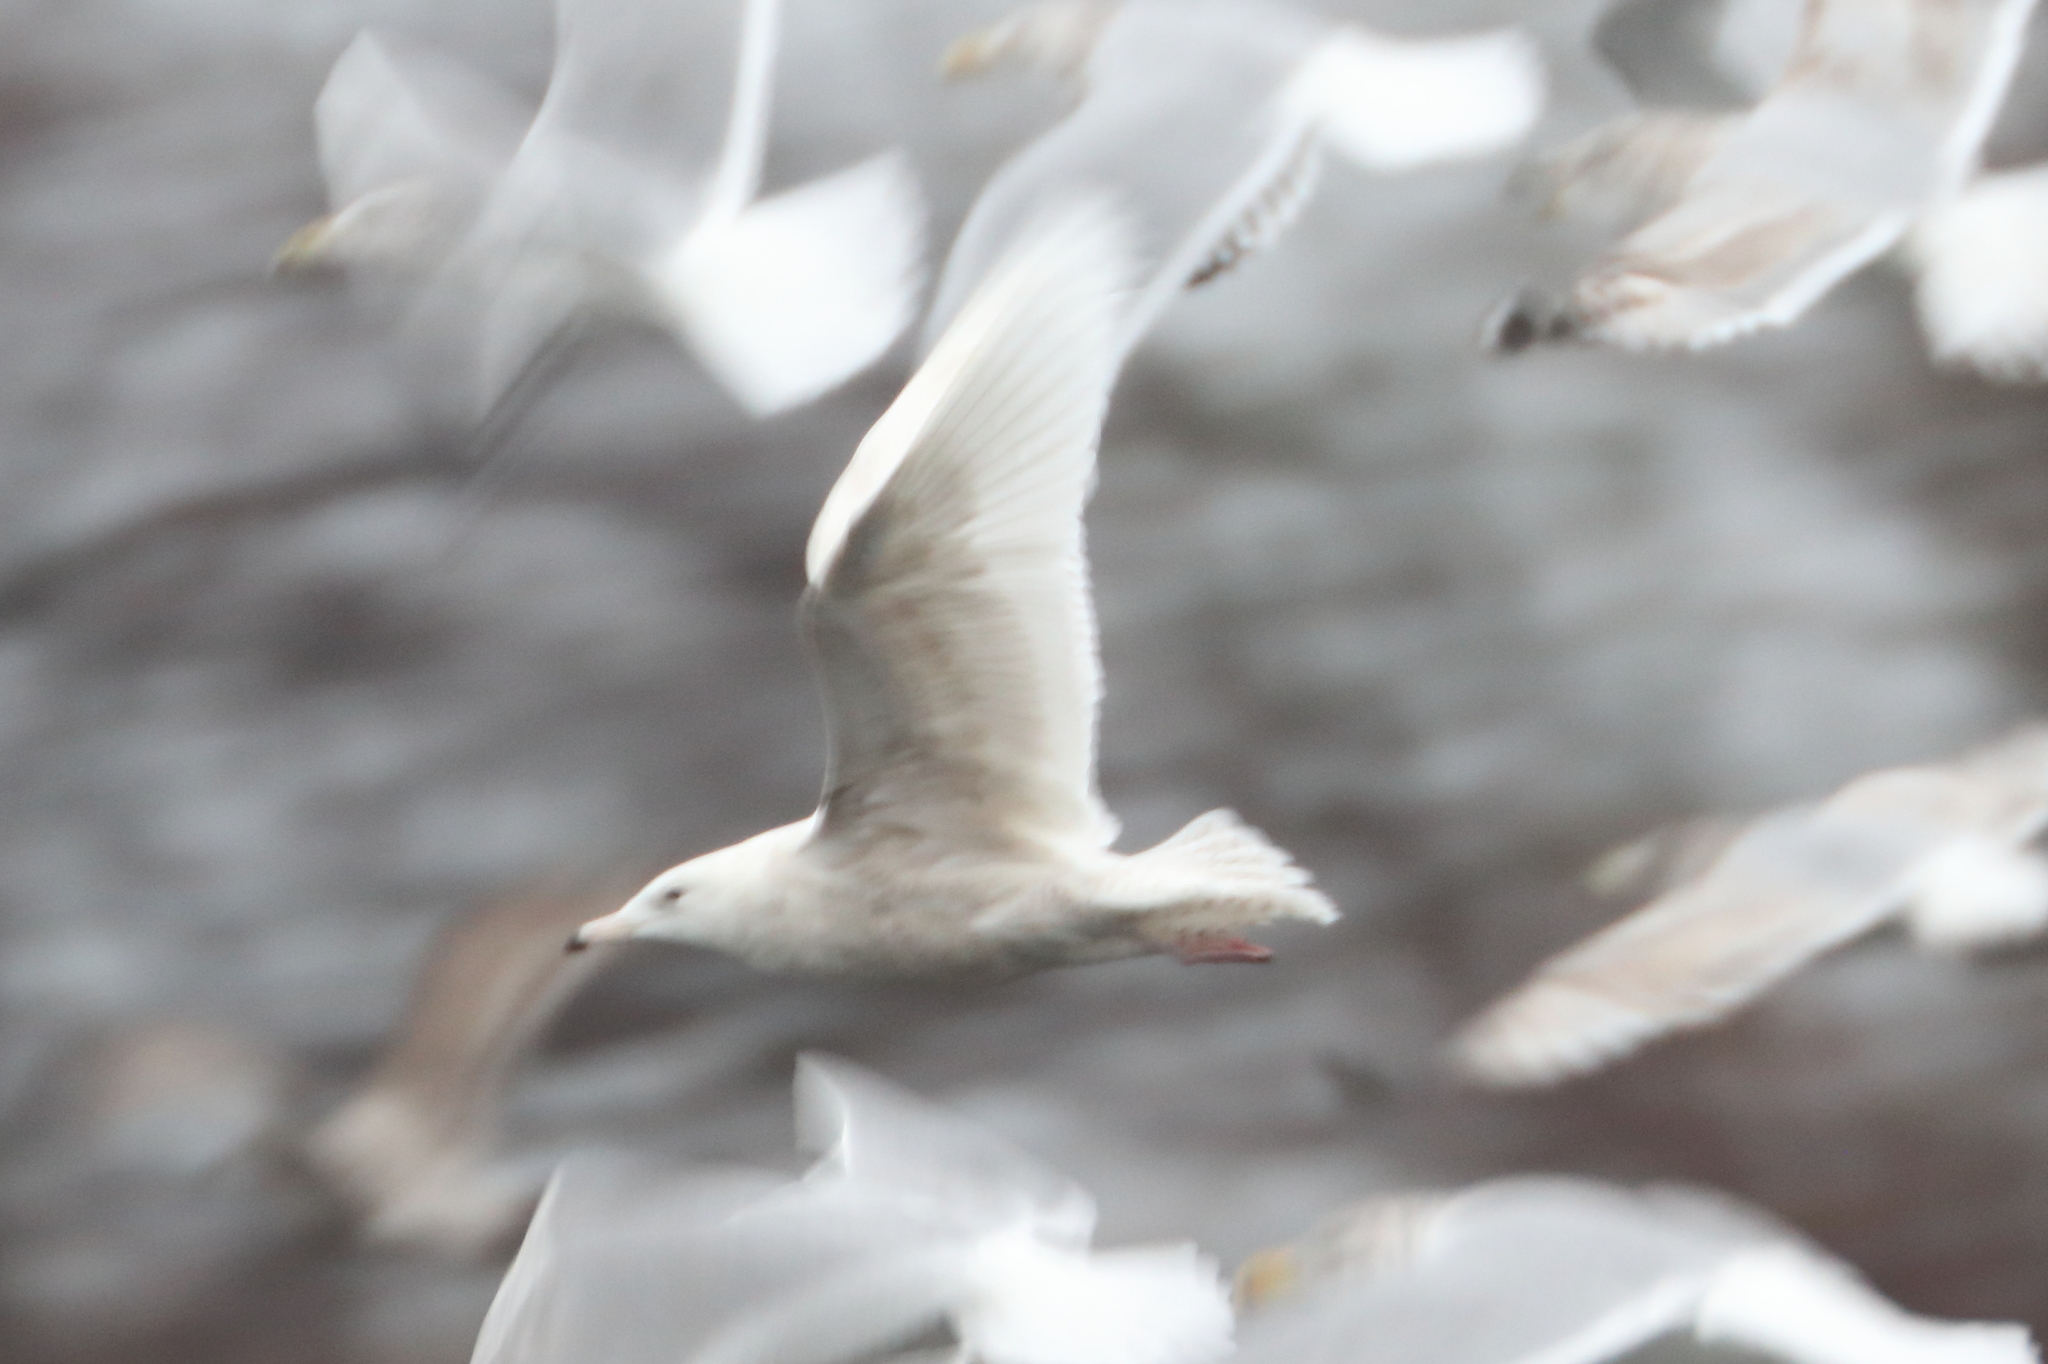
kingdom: Animalia
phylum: Chordata
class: Aves
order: Charadriiformes
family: Laridae
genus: Larus
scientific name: Larus hyperboreus
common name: Glaucous gull
